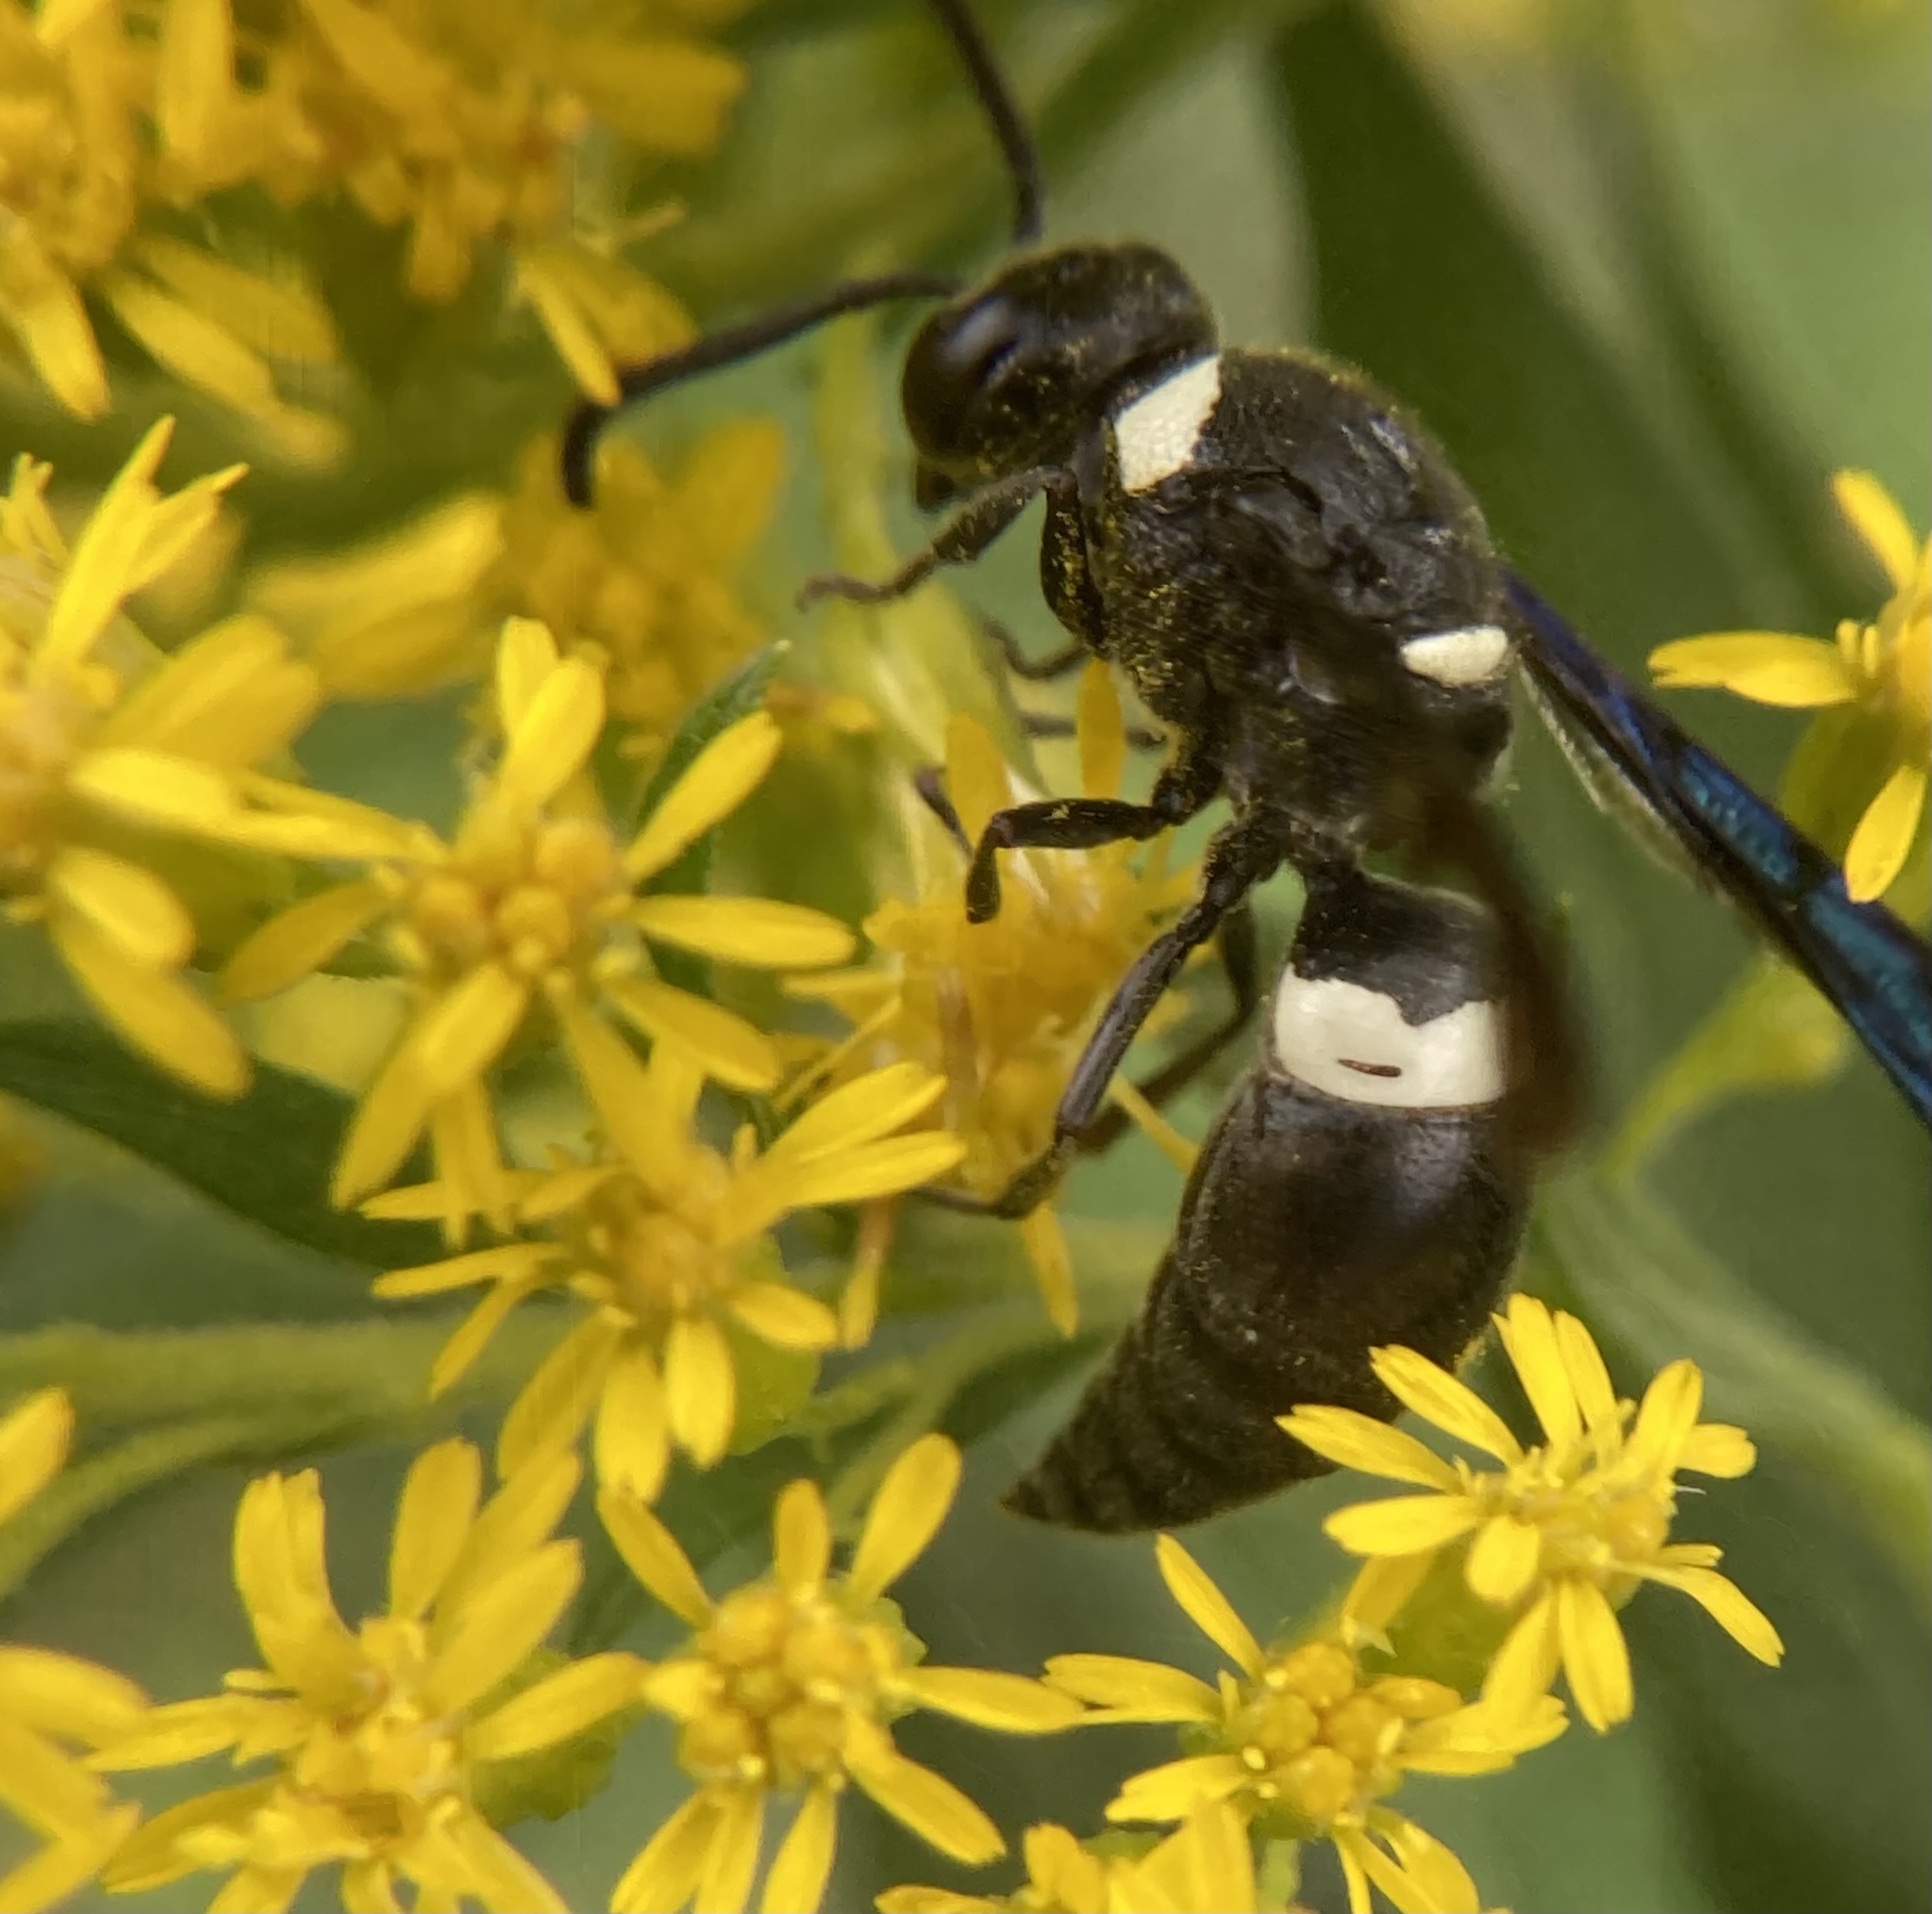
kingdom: Animalia
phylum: Arthropoda
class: Insecta
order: Hymenoptera
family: Eumenidae
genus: Monobia
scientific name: Monobia quadridens
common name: Four-toothed mason wasp
